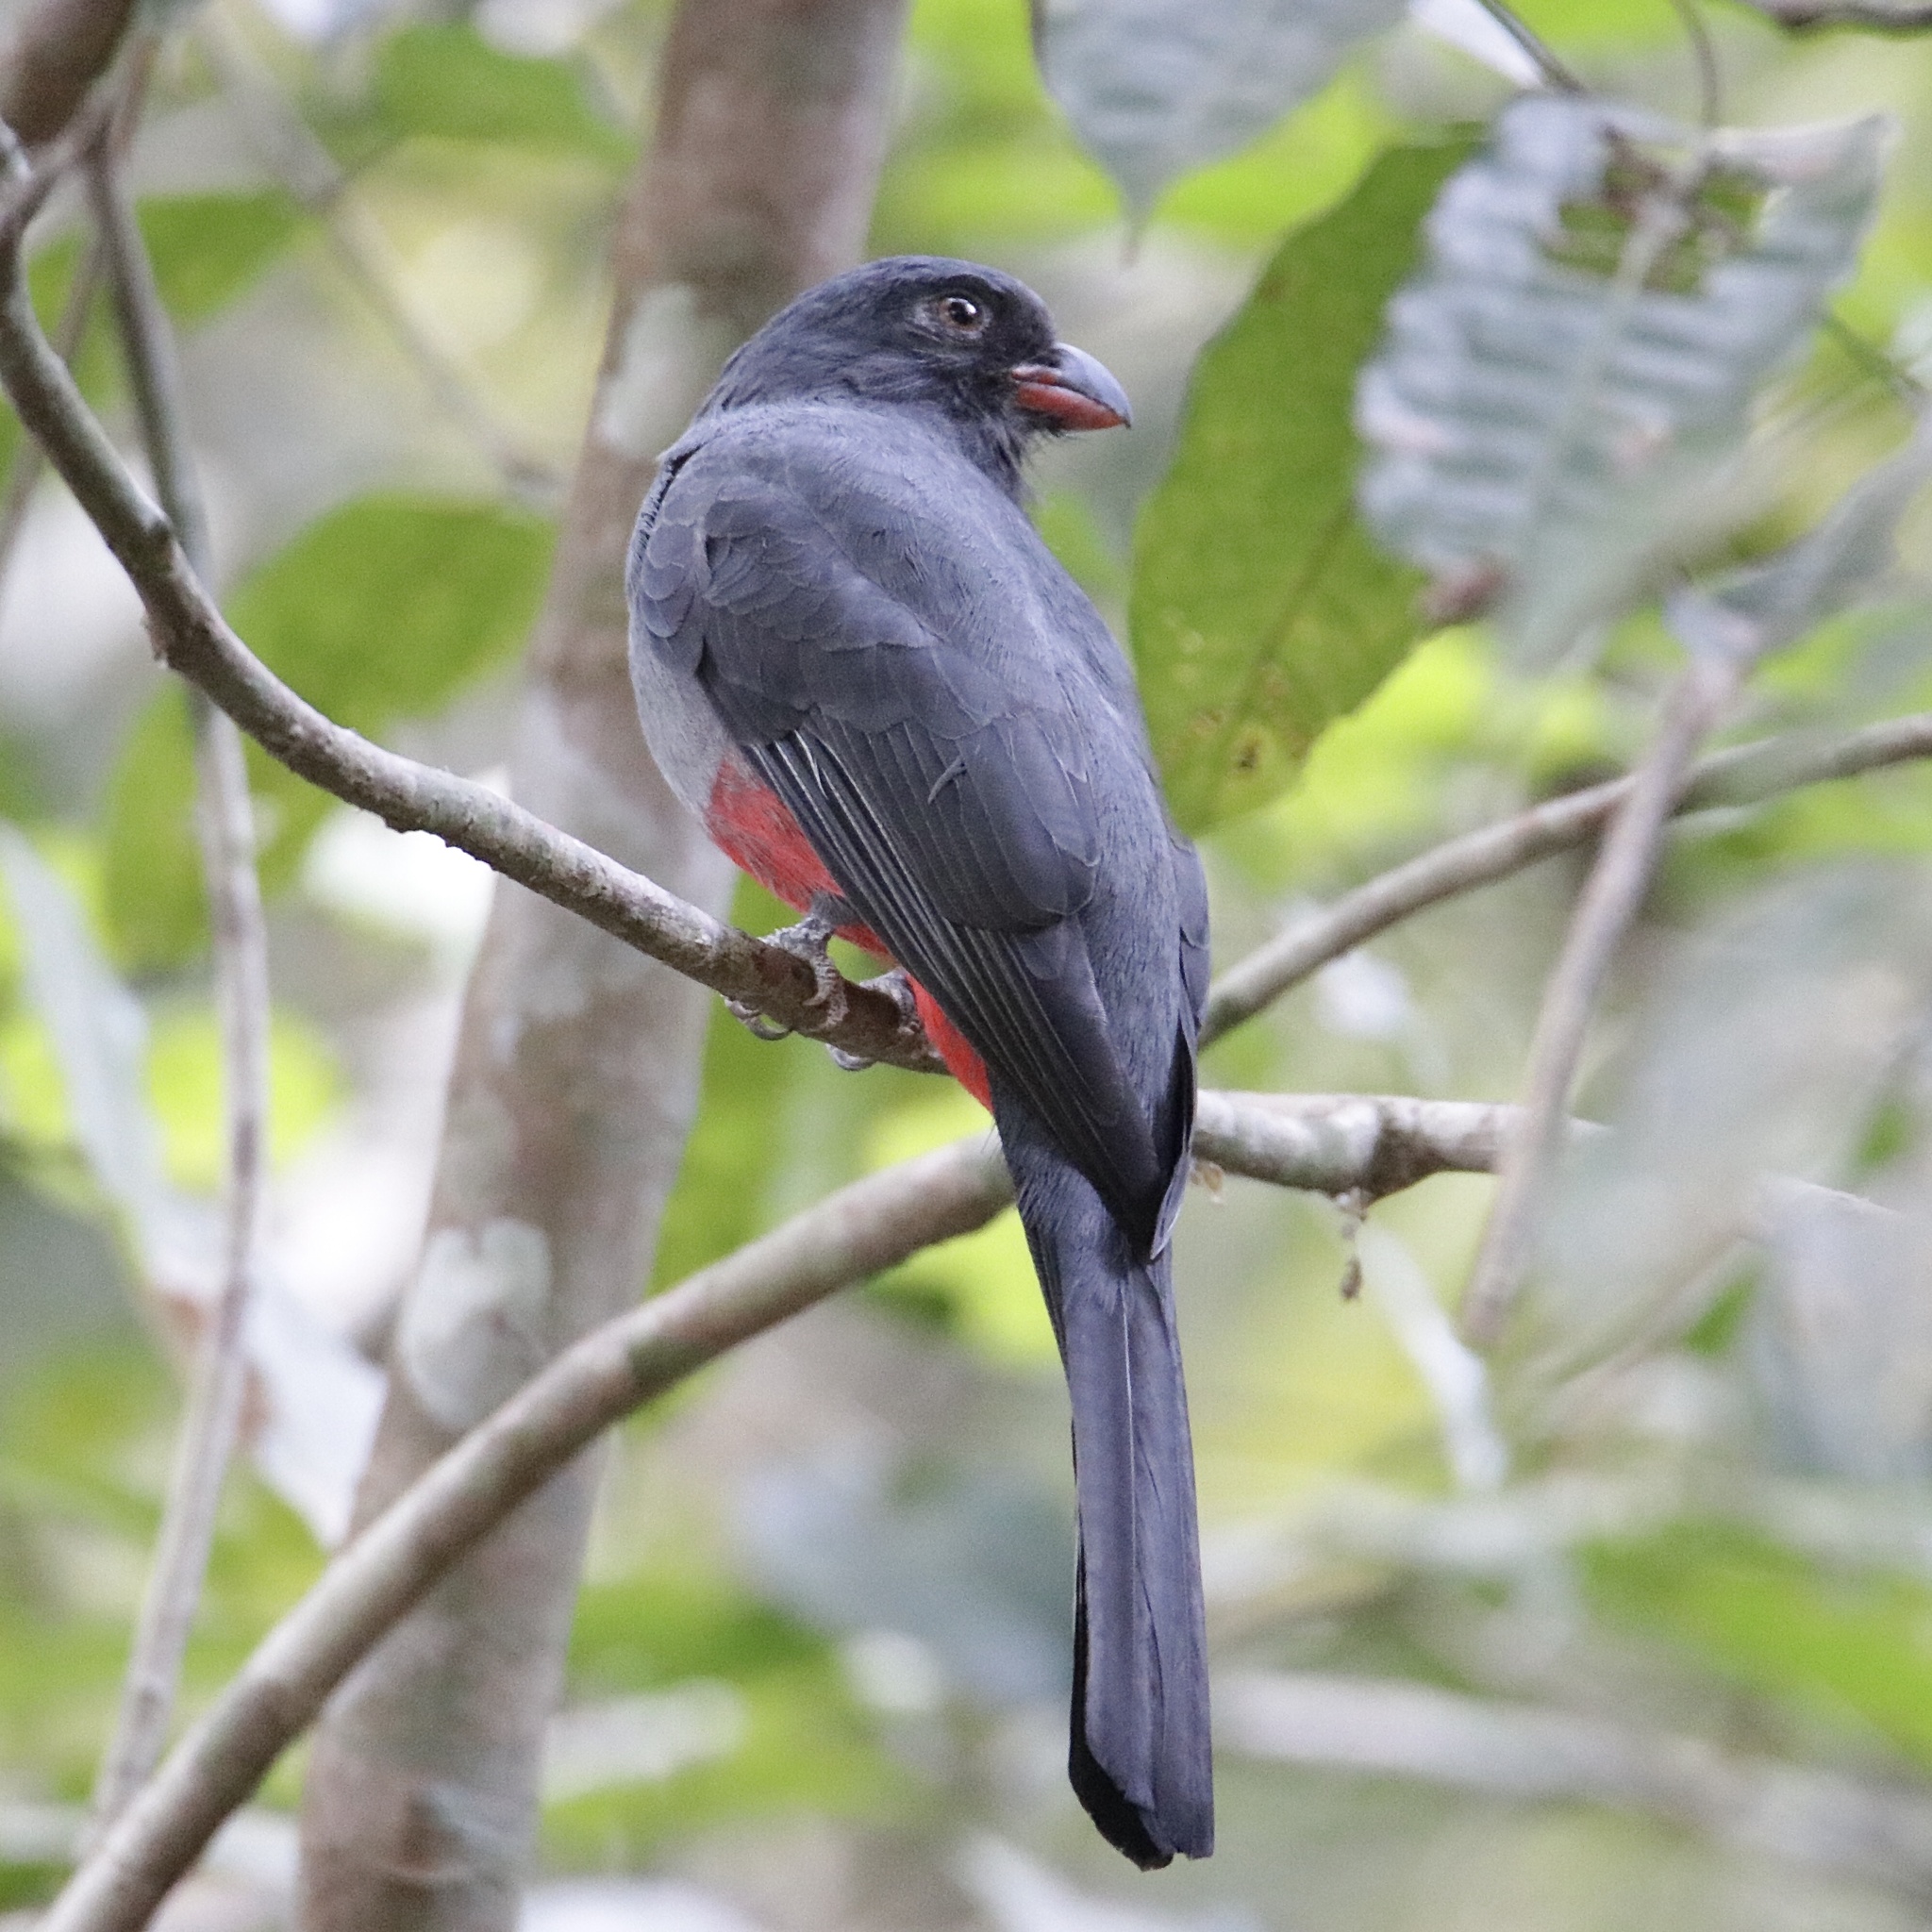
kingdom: Animalia
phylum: Chordata
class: Aves
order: Trogoniformes
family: Trogonidae
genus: Trogon
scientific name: Trogon massena
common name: Slaty-tailed trogon
